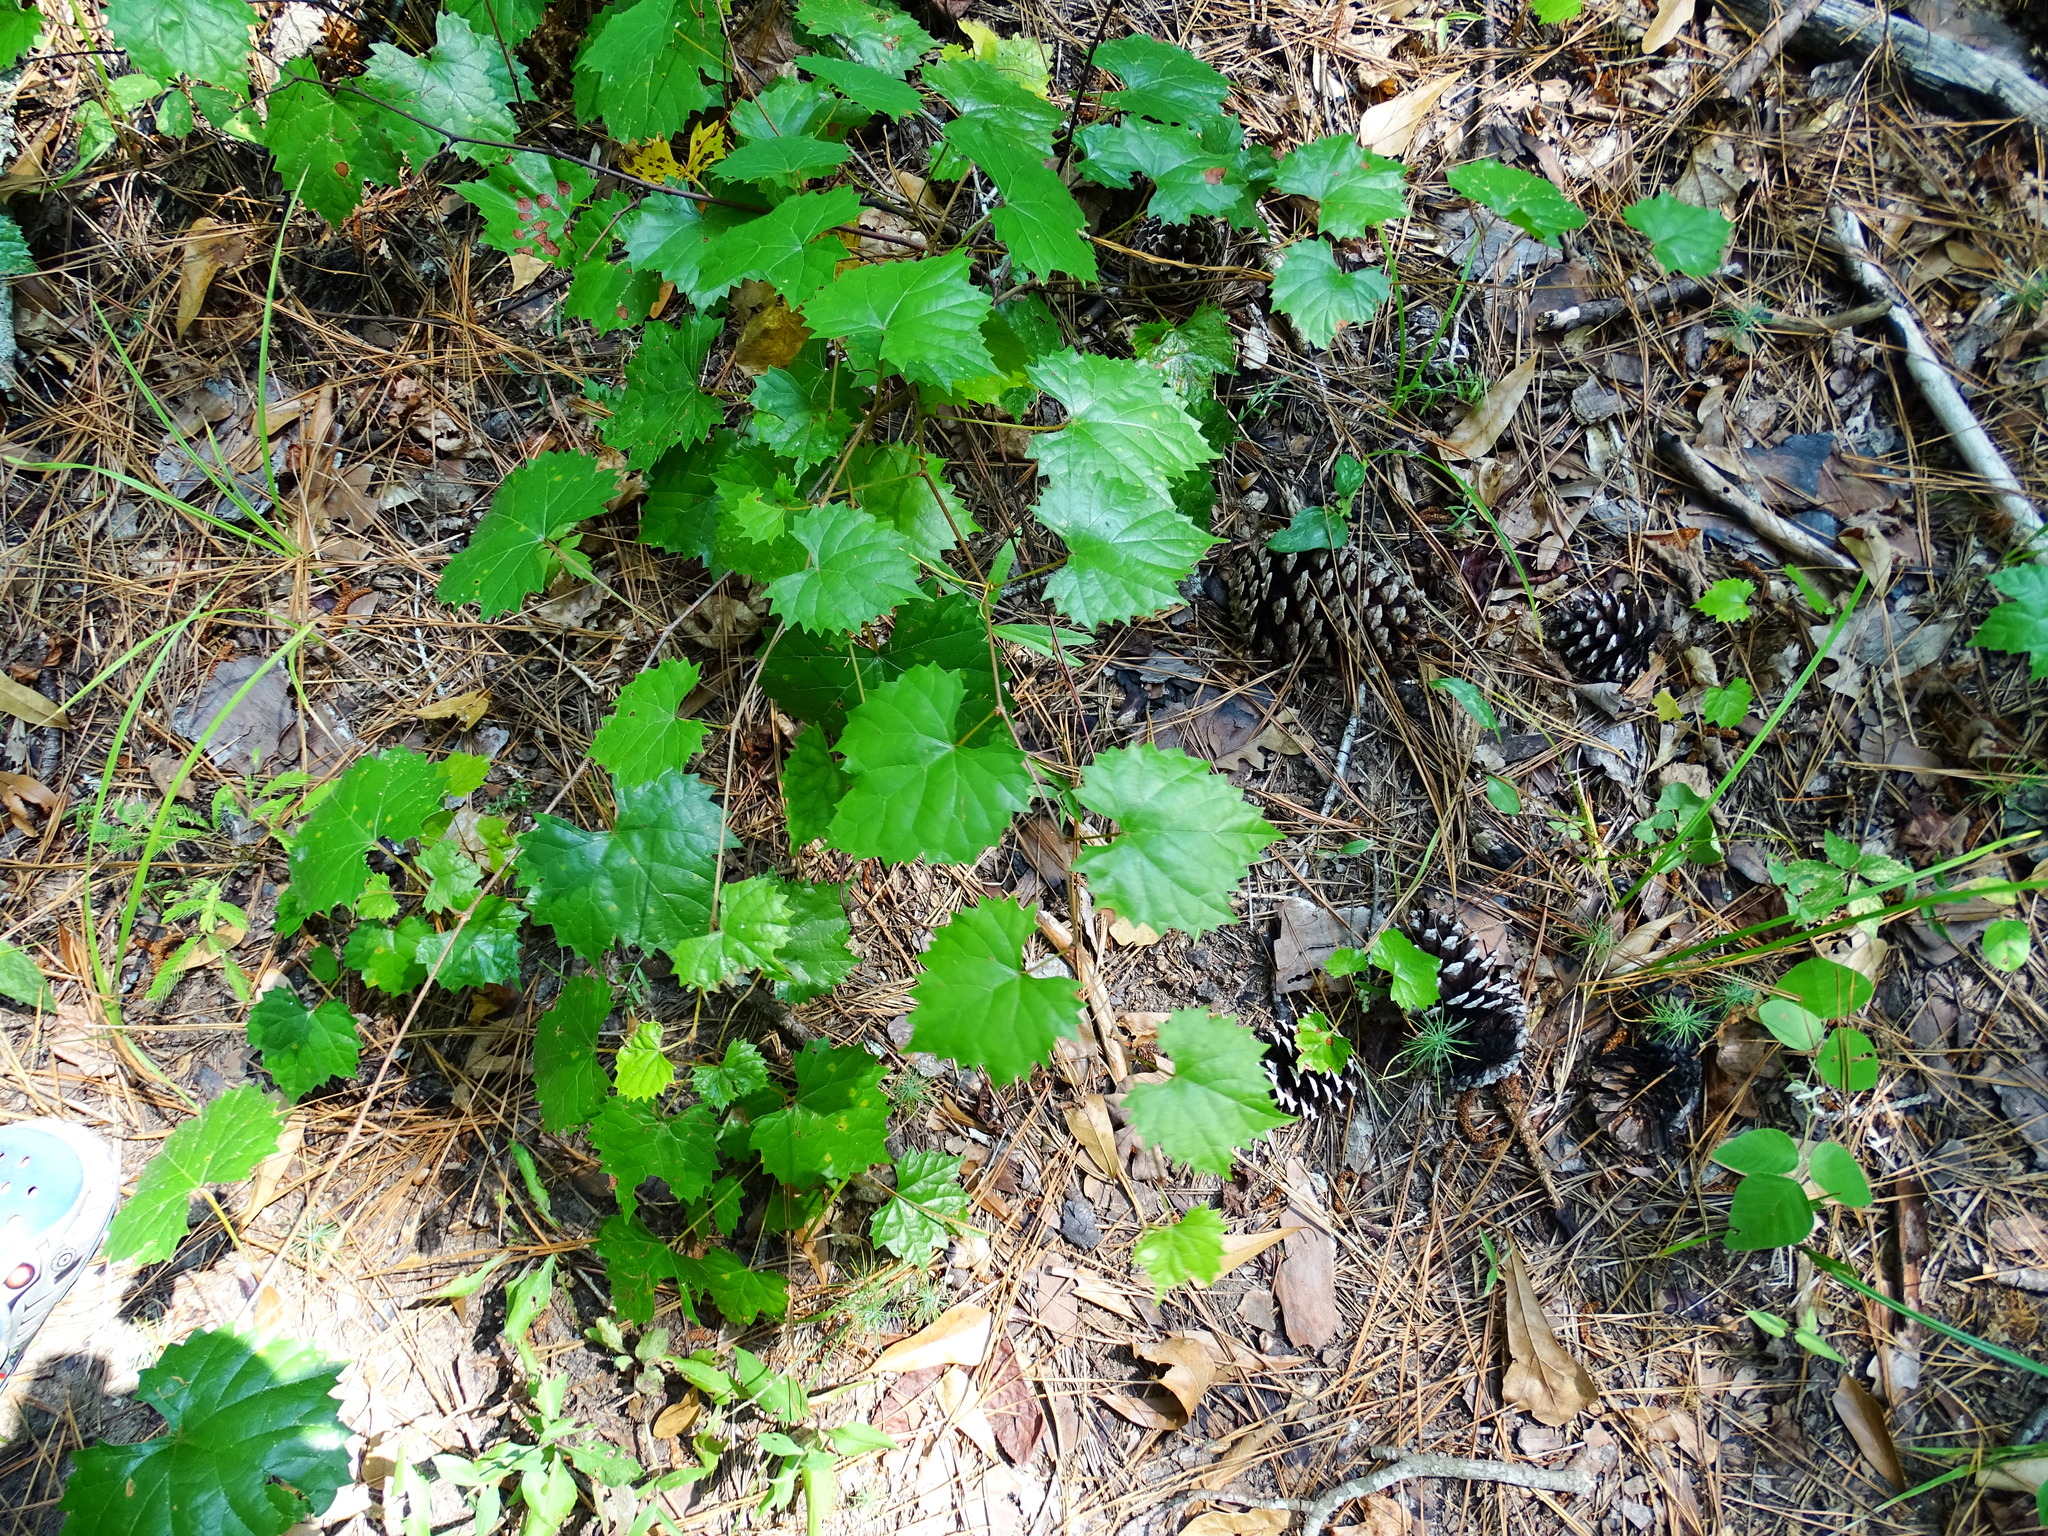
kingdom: Plantae
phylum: Tracheophyta
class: Magnoliopsida
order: Vitales
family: Vitaceae
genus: Vitis
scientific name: Vitis rotundifolia
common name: Muscadine grape
